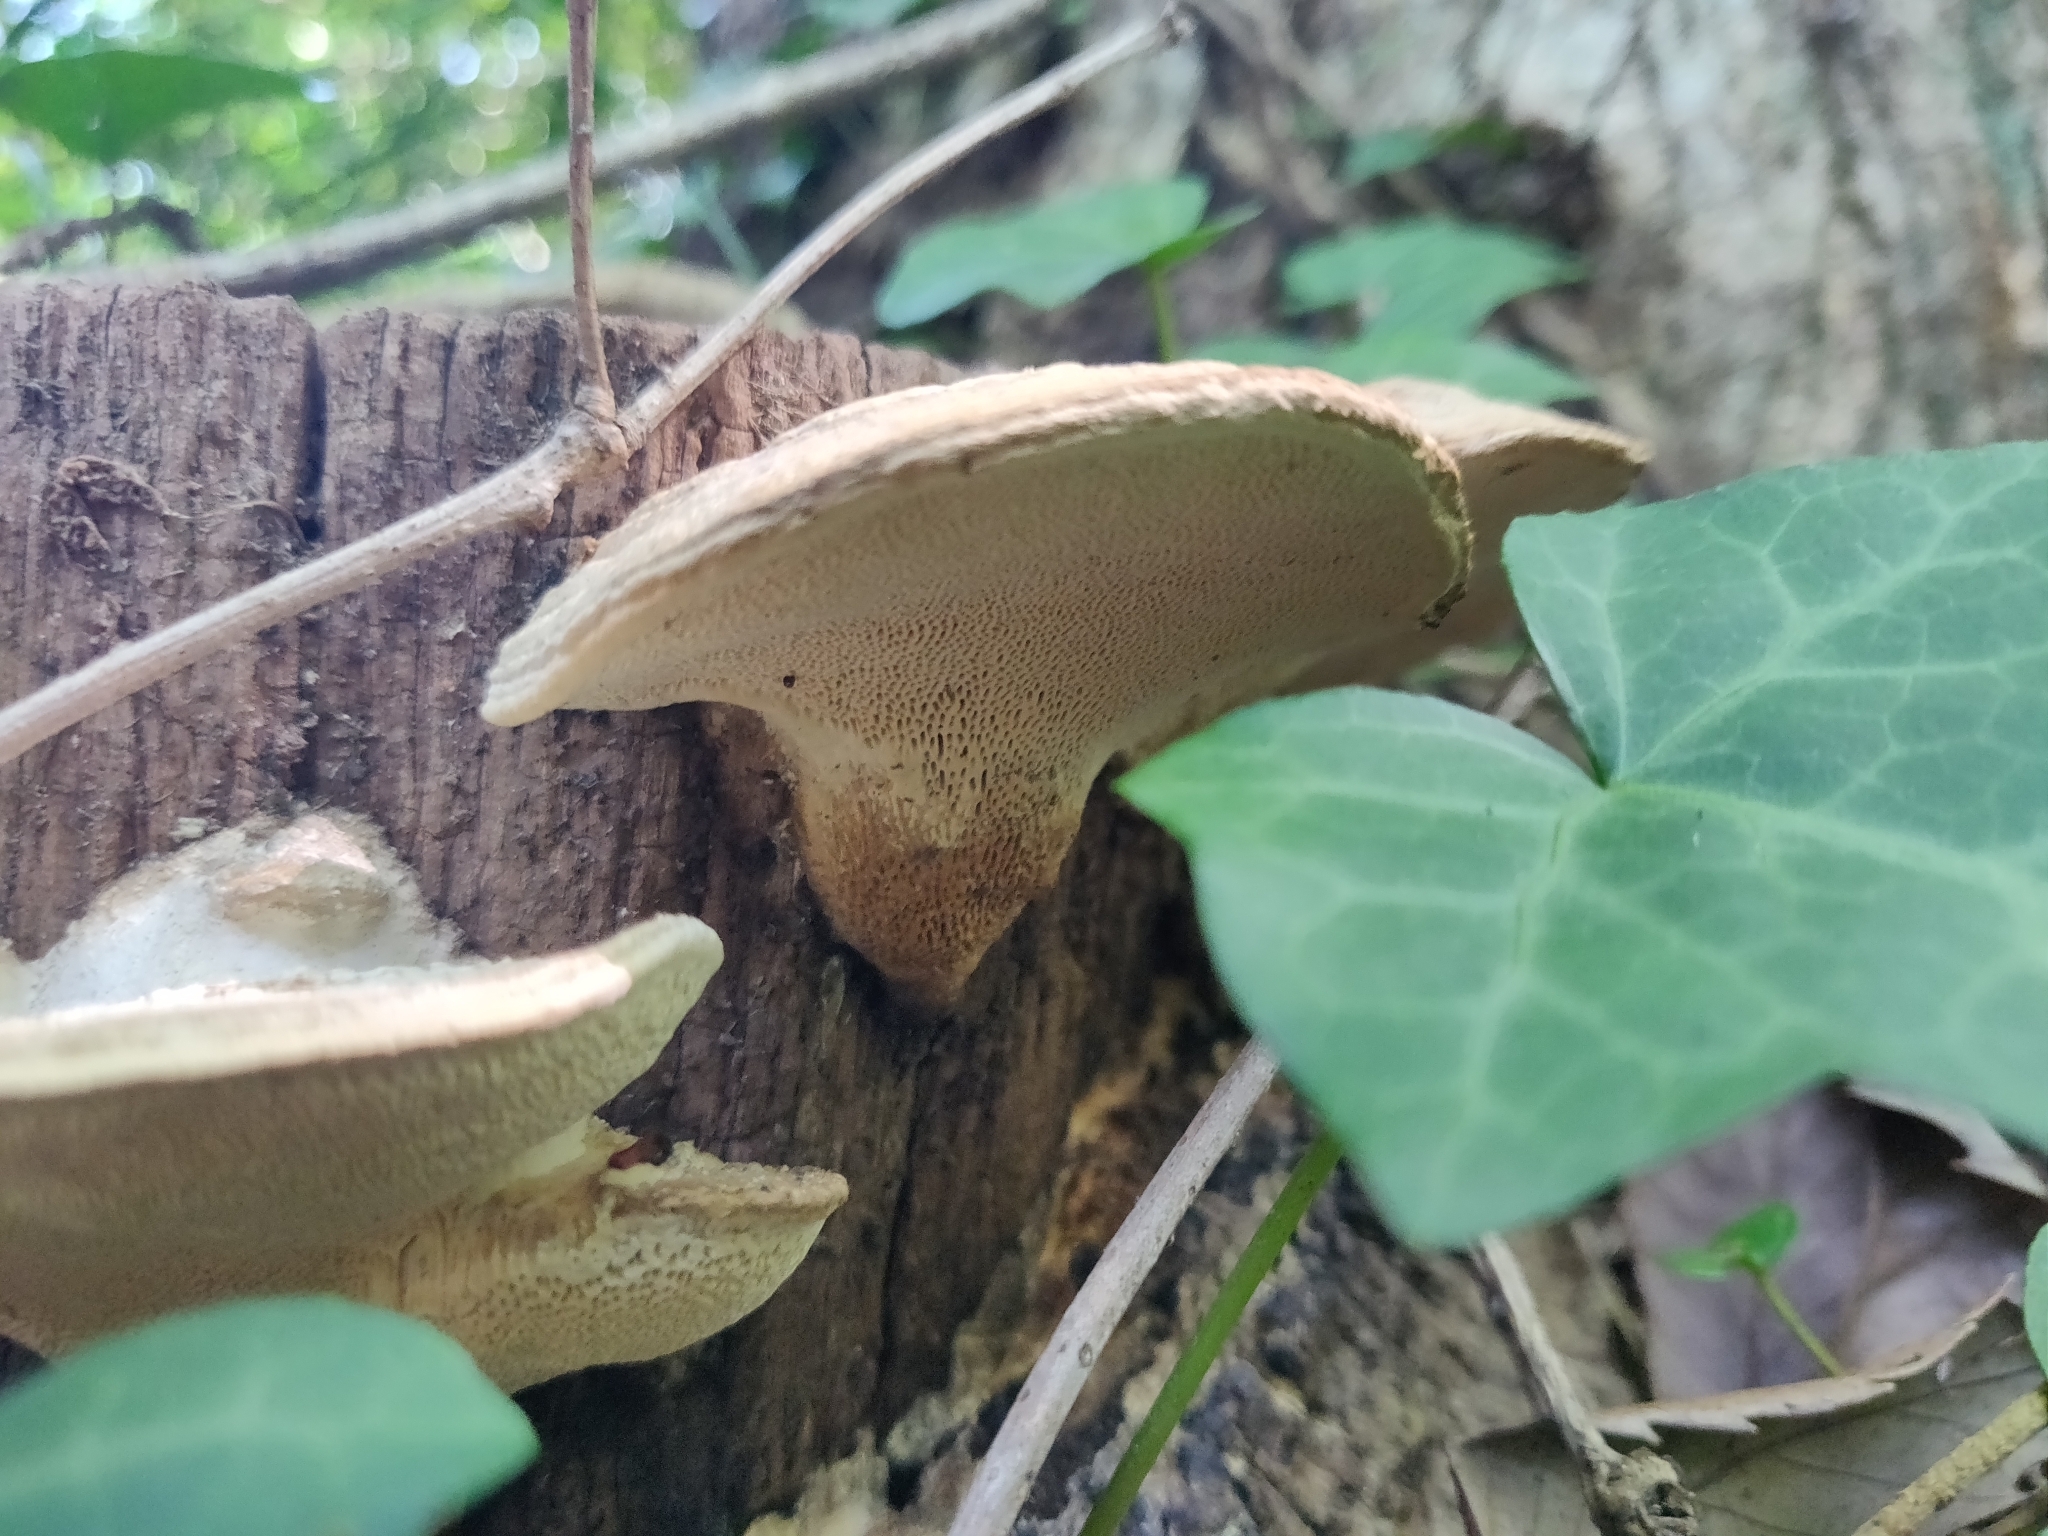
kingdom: Fungi
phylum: Basidiomycota
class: Agaricomycetes
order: Polyporales
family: Fomitopsidaceae
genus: Fomitopsis
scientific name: Fomitopsis
